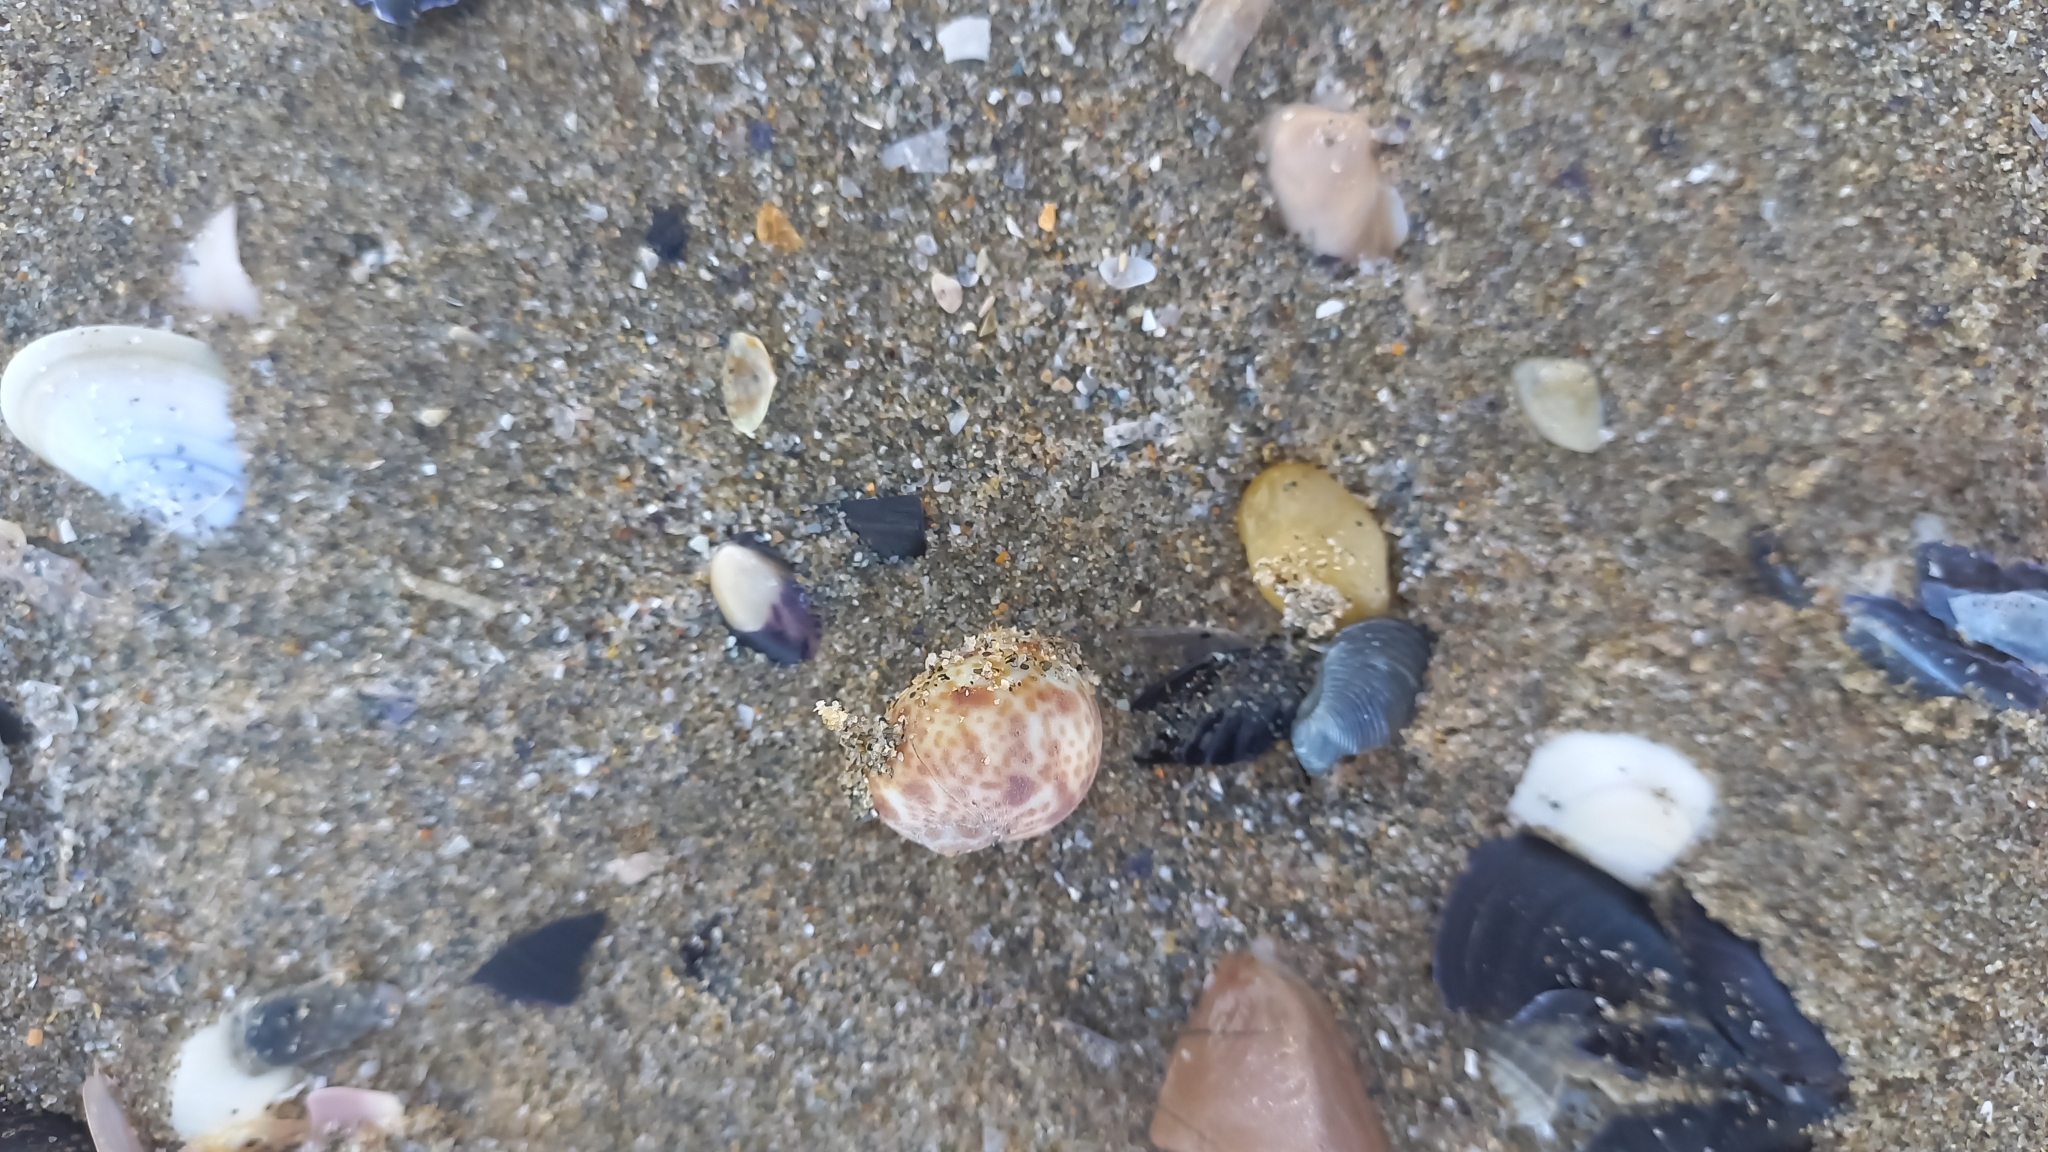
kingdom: Animalia
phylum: Mollusca
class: Gastropoda
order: Littorinimorpha
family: Naticidae
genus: Naticarius
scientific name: Naticarius hebraeus
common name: Hebrew moon shell
